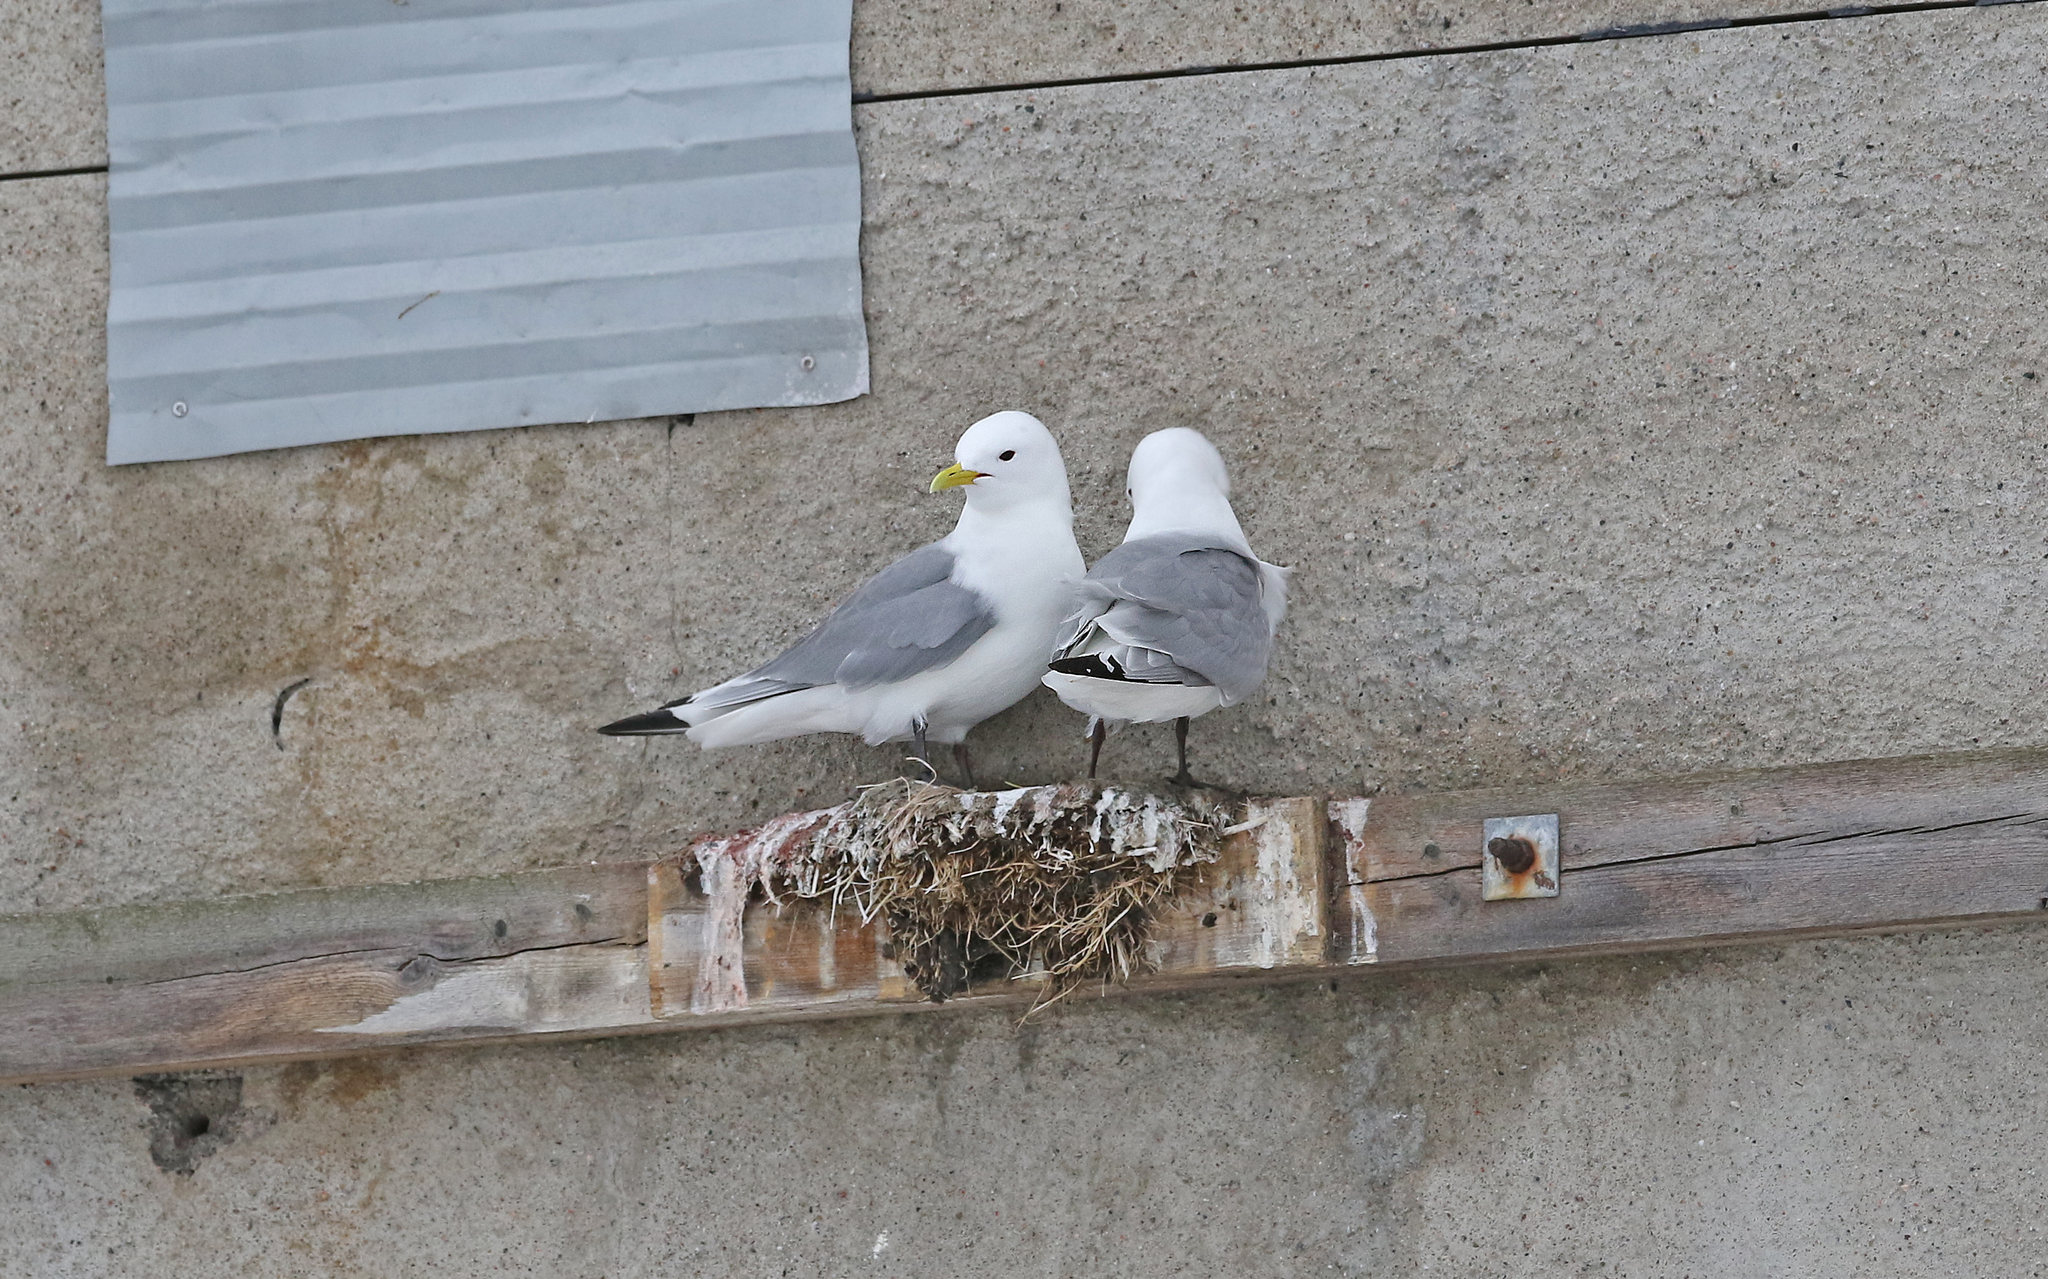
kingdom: Animalia
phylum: Chordata
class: Aves
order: Charadriiformes
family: Laridae
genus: Rissa
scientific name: Rissa tridactyla
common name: Black-legged kittiwake
